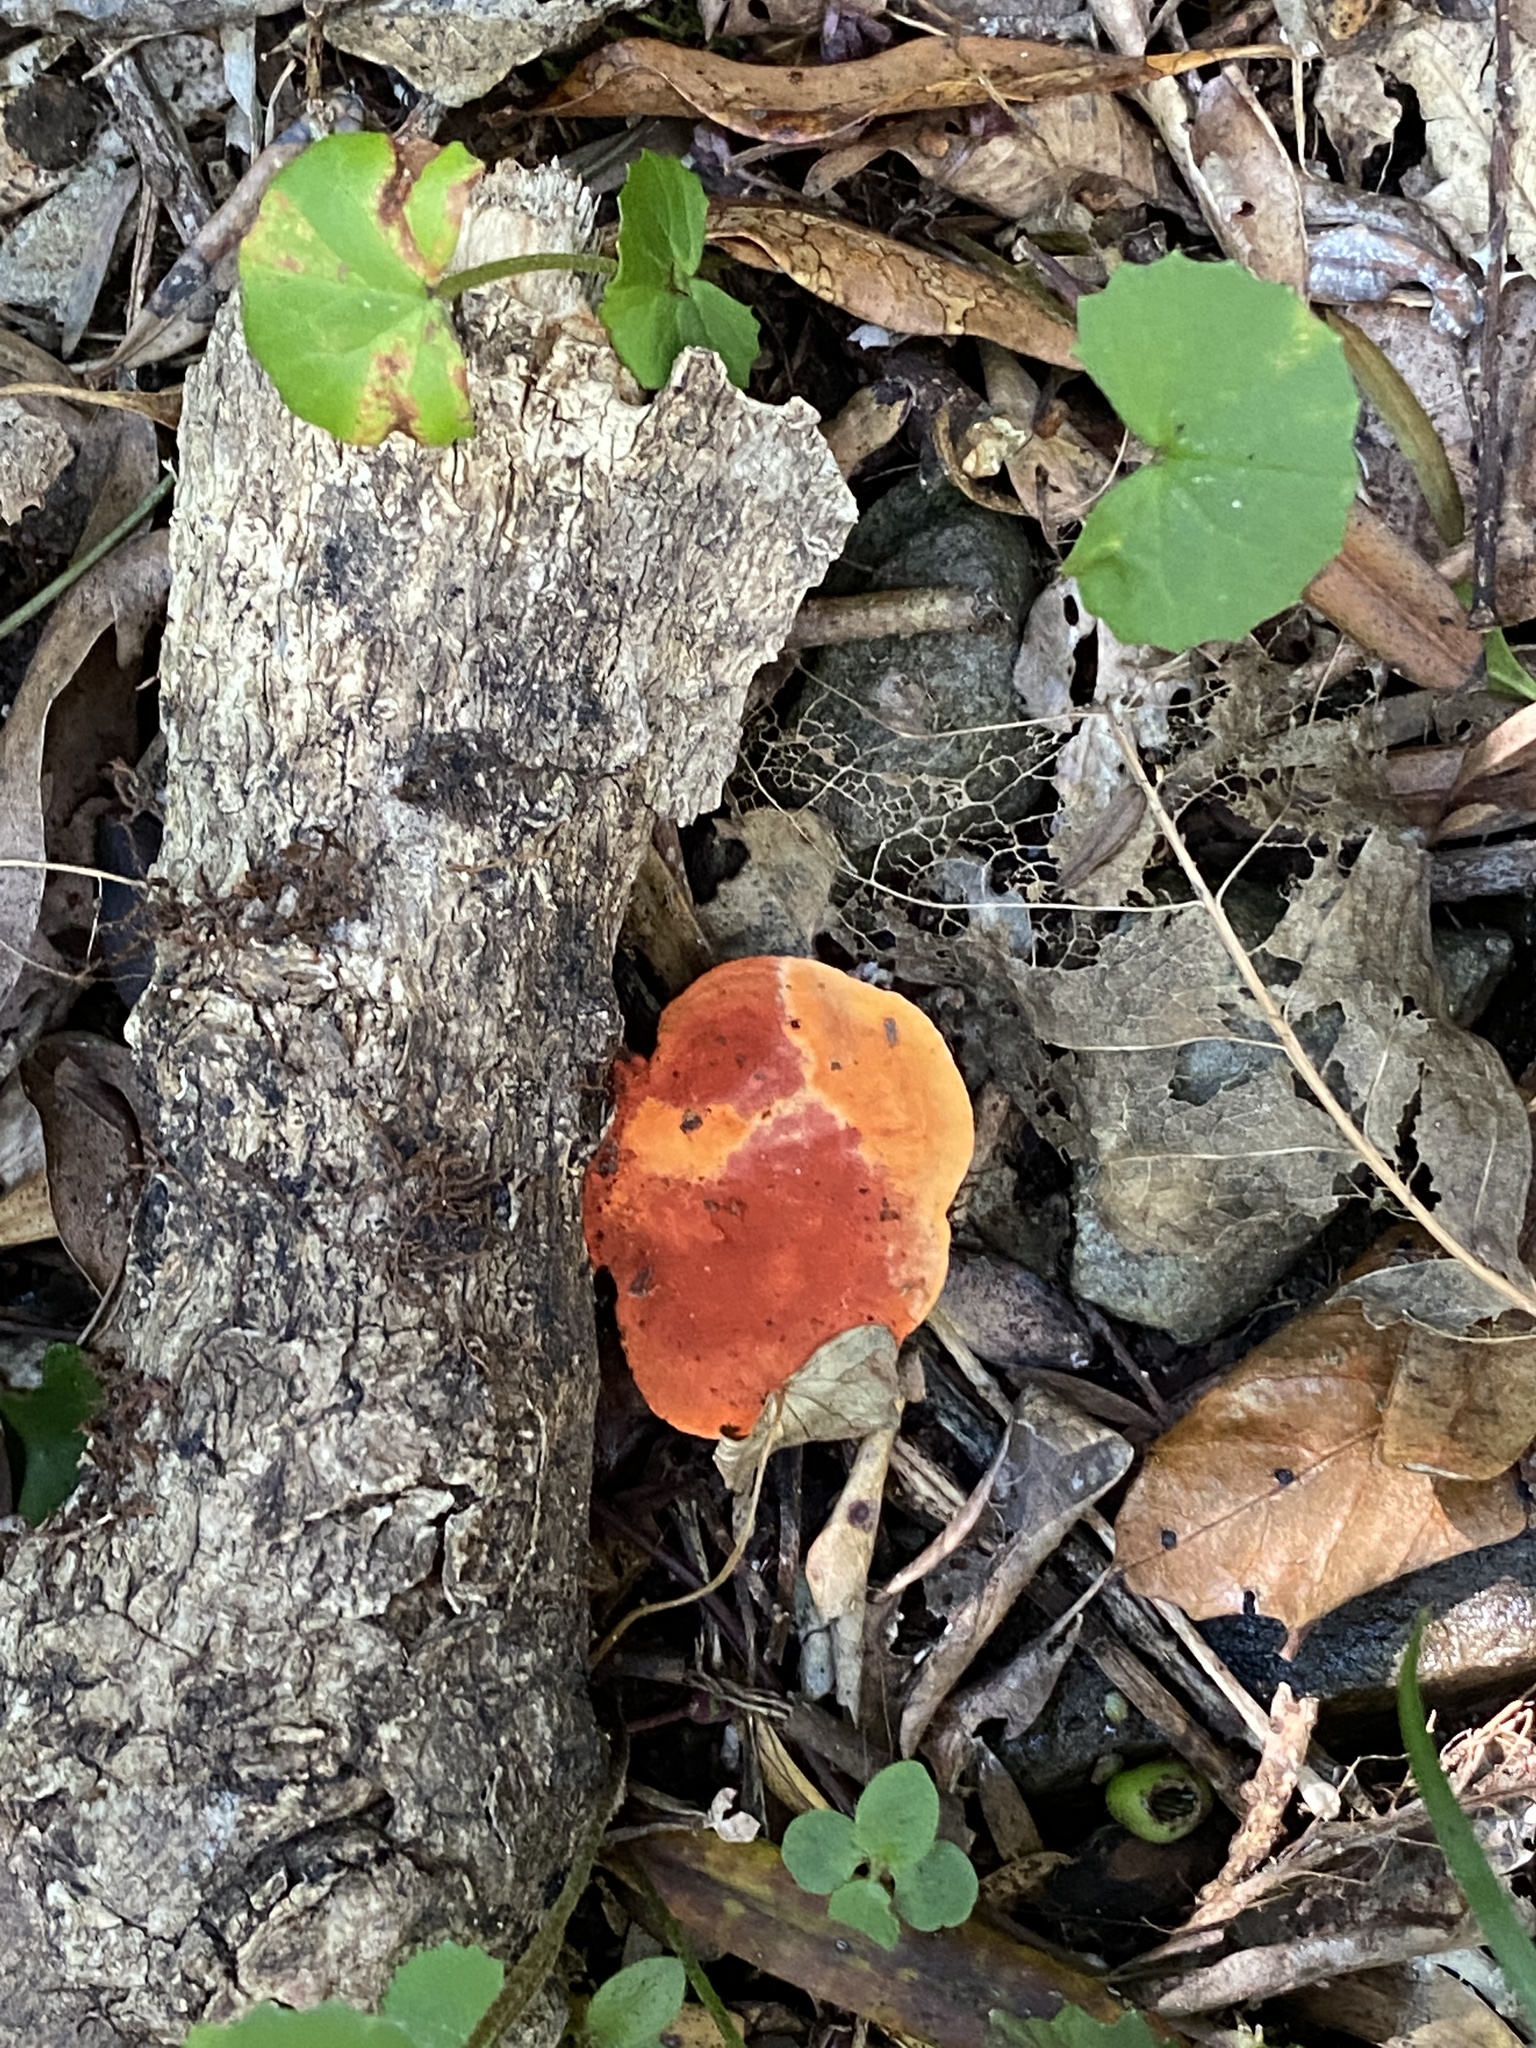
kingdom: Fungi
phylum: Basidiomycota
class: Agaricomycetes
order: Polyporales
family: Polyporaceae
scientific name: Polyporaceae
